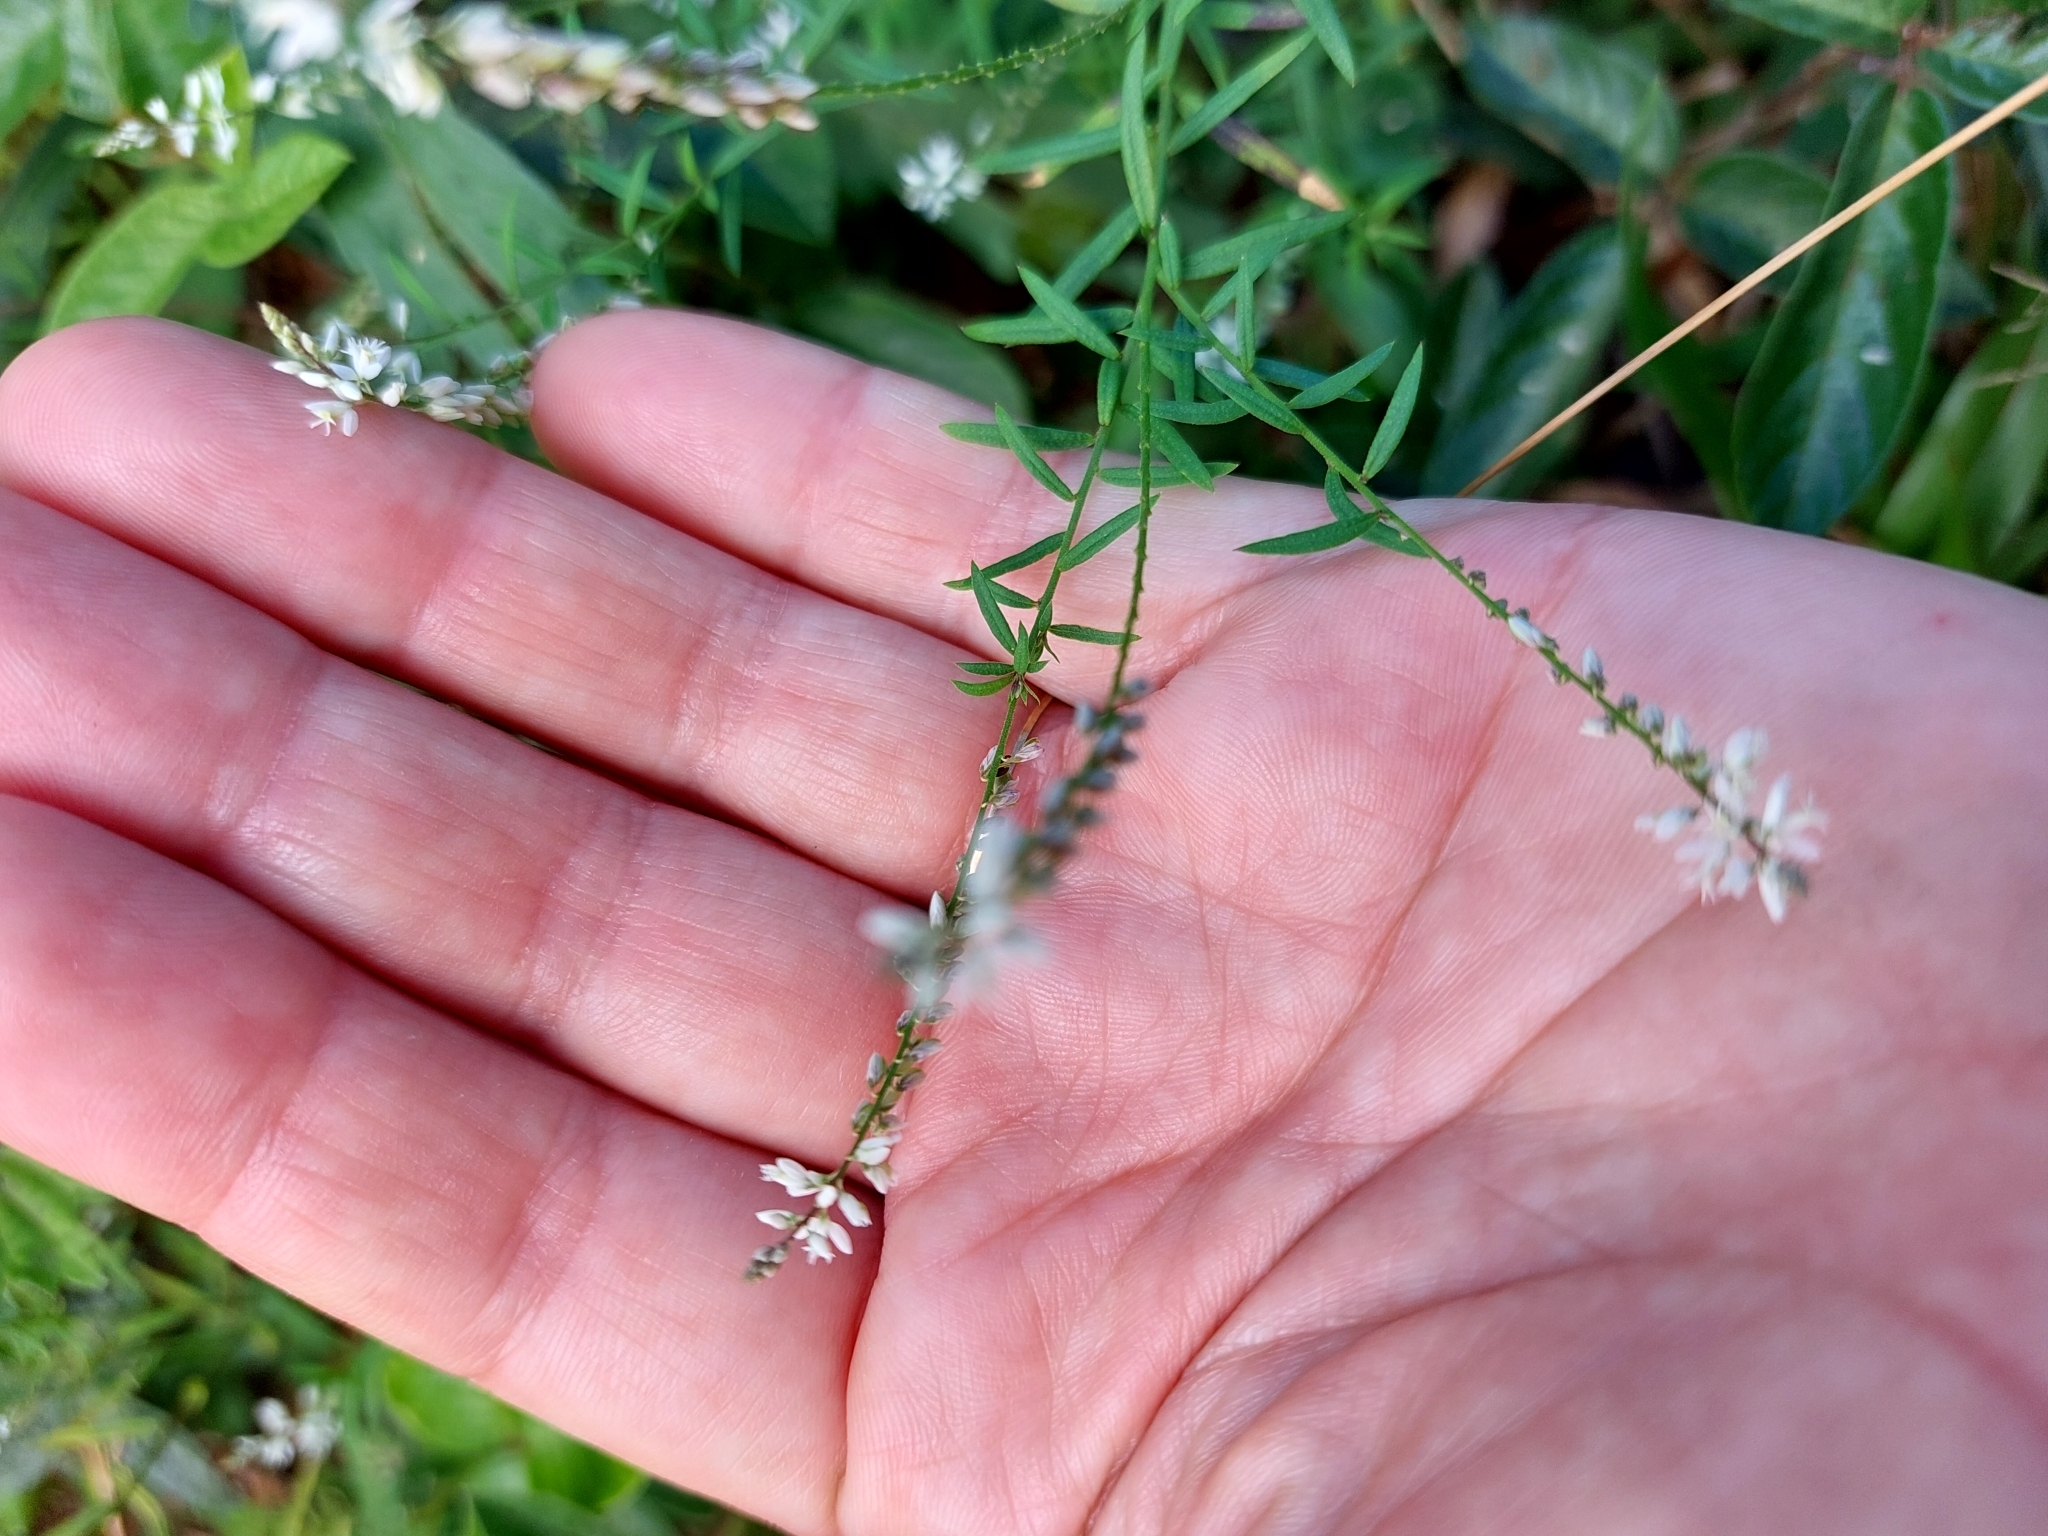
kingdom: Plantae
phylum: Tracheophyta
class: Magnoliopsida
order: Fabales
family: Polygalaceae
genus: Polygala
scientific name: Polygala paniculata
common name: Orosne
